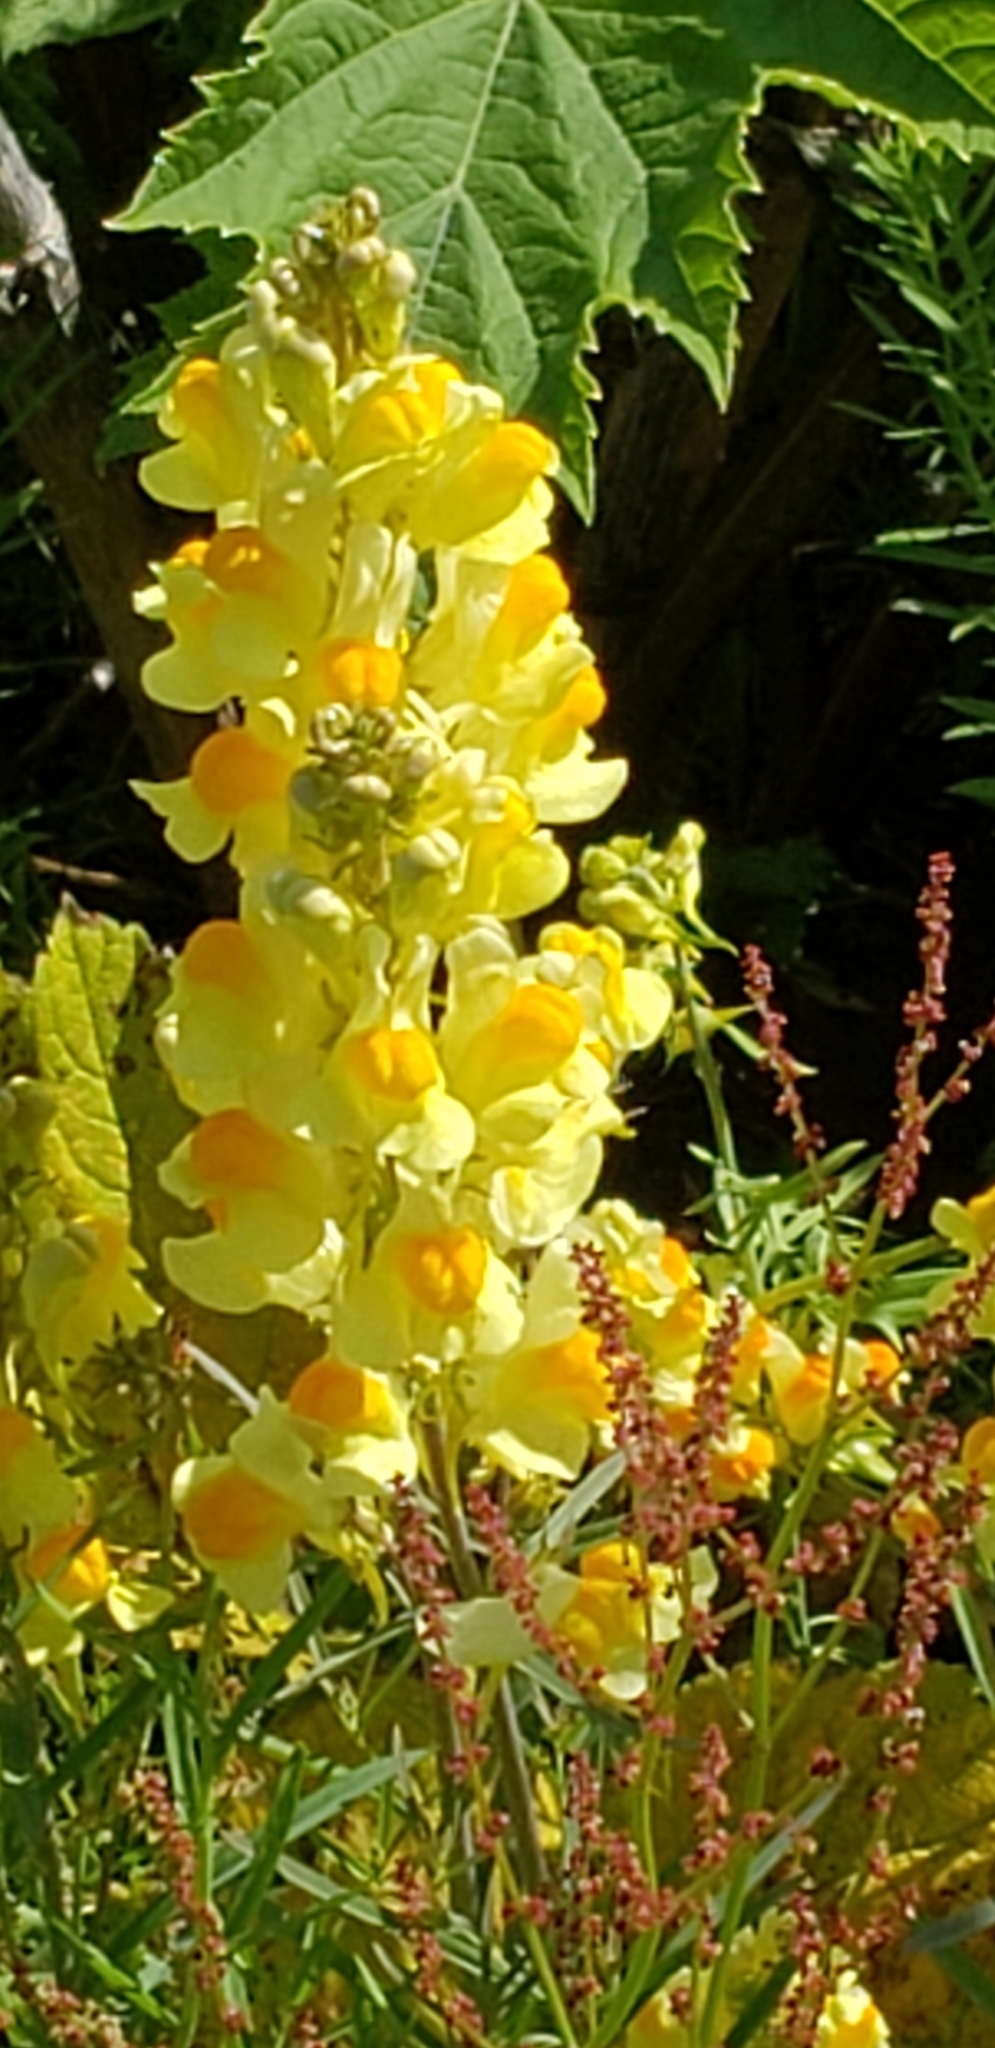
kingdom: Plantae
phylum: Tracheophyta
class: Magnoliopsida
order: Lamiales
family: Plantaginaceae
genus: Linaria
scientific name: Linaria vulgaris
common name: Butter and eggs
